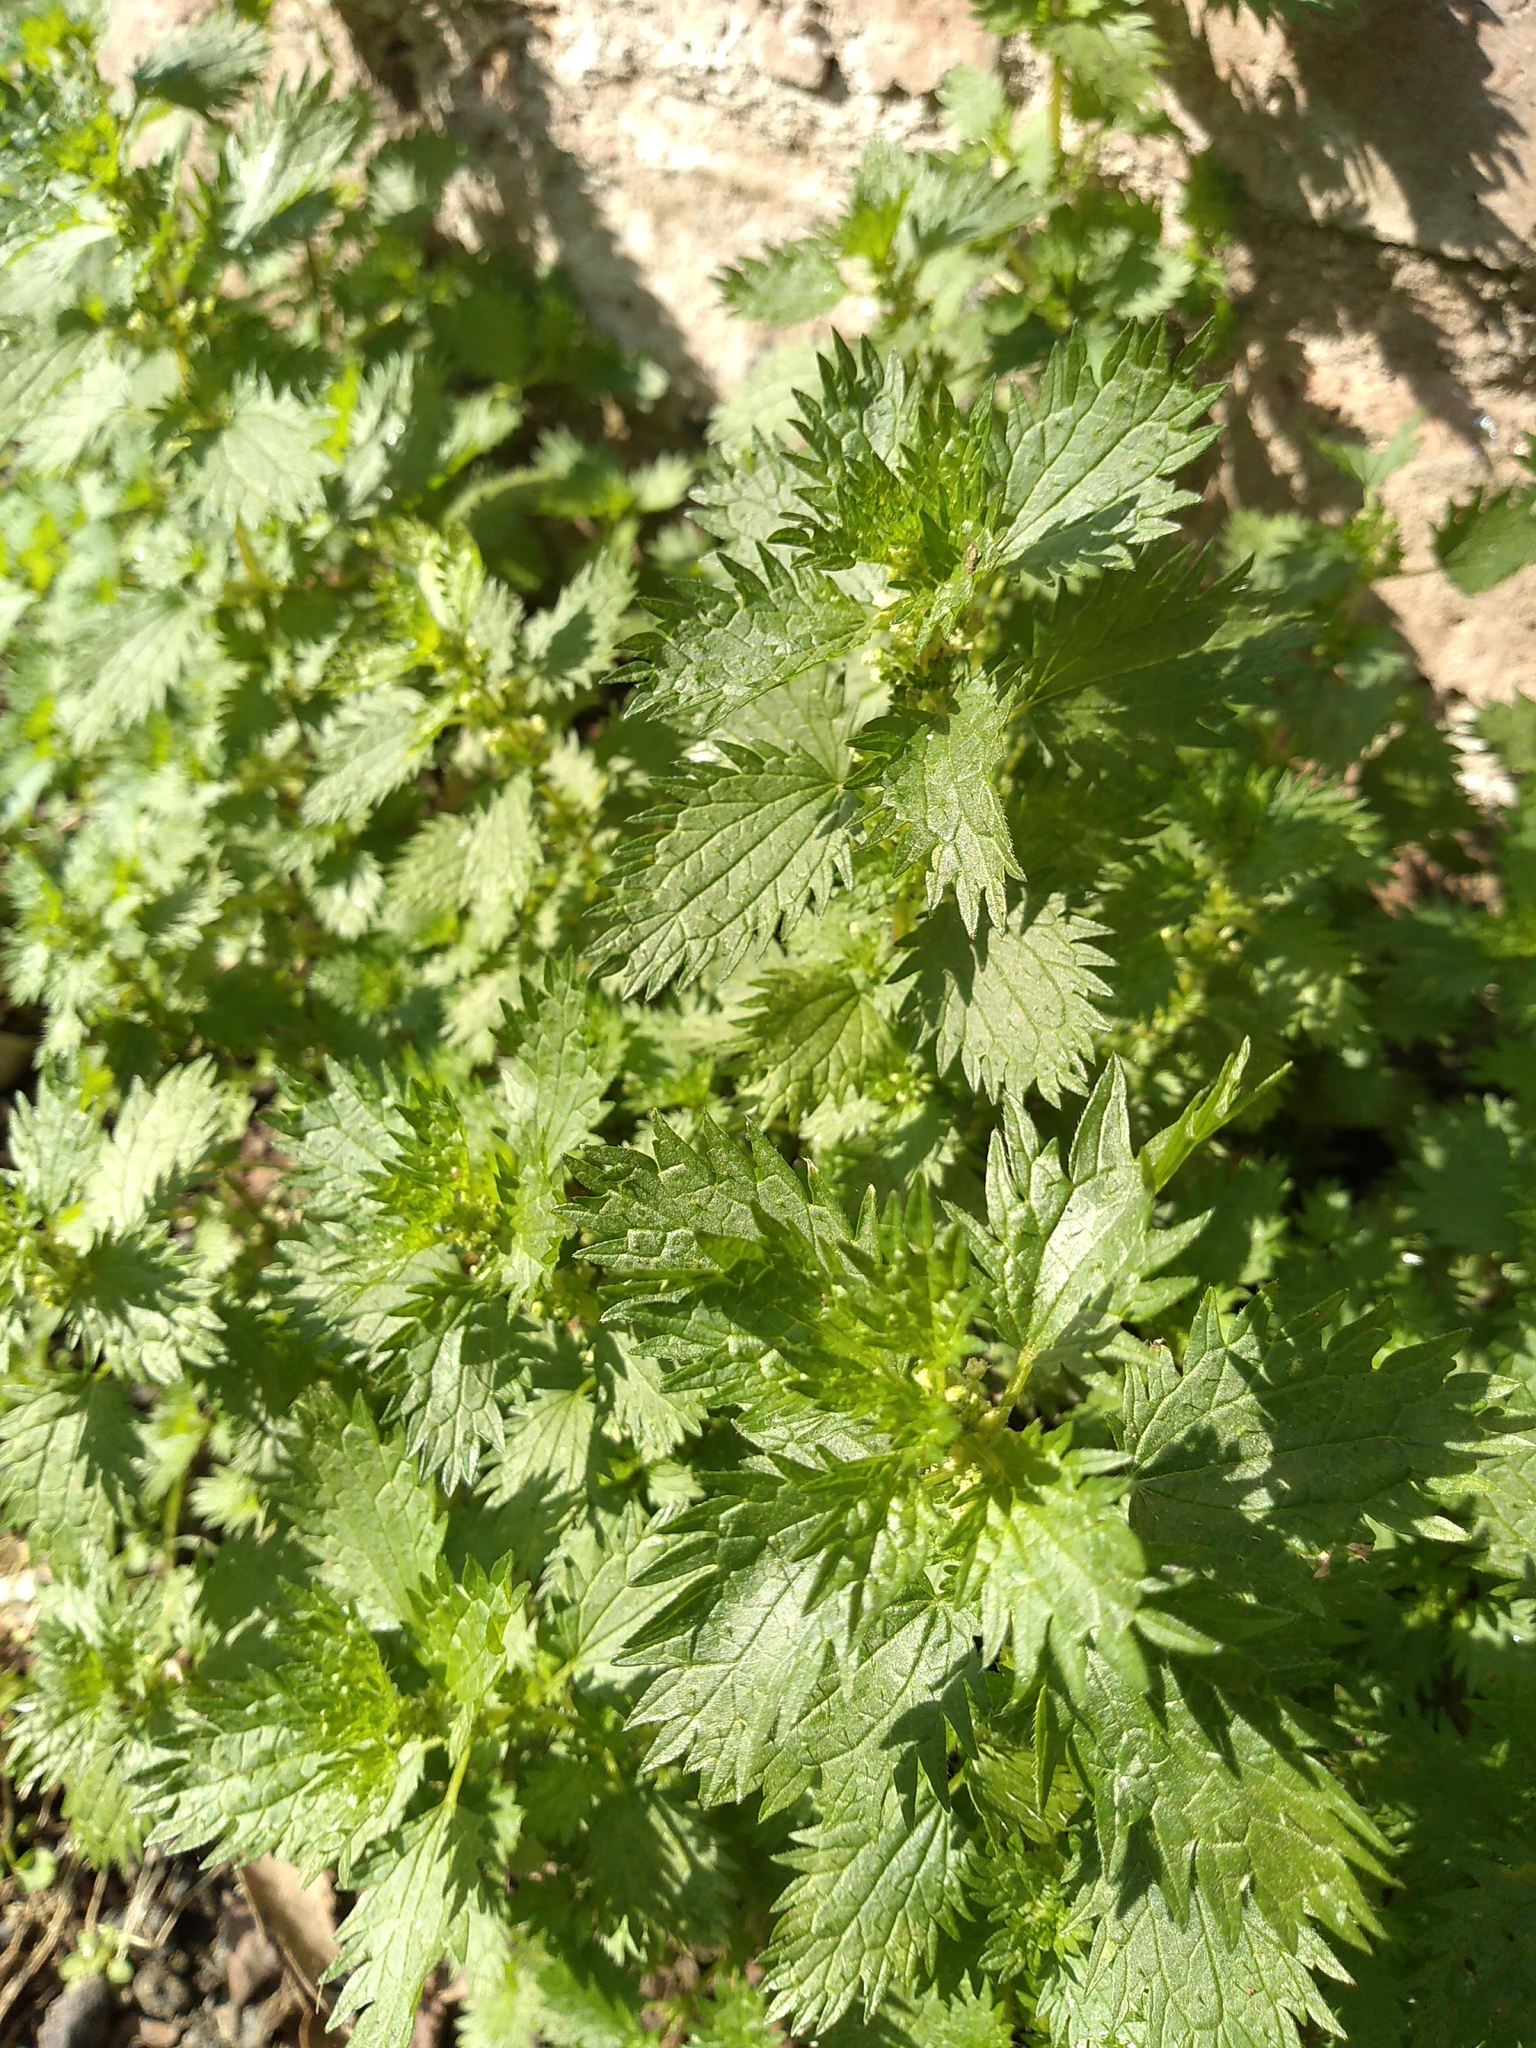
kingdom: Plantae
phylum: Tracheophyta
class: Magnoliopsida
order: Rosales
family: Urticaceae
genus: Urtica
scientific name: Urtica urens
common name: Dwarf nettle
